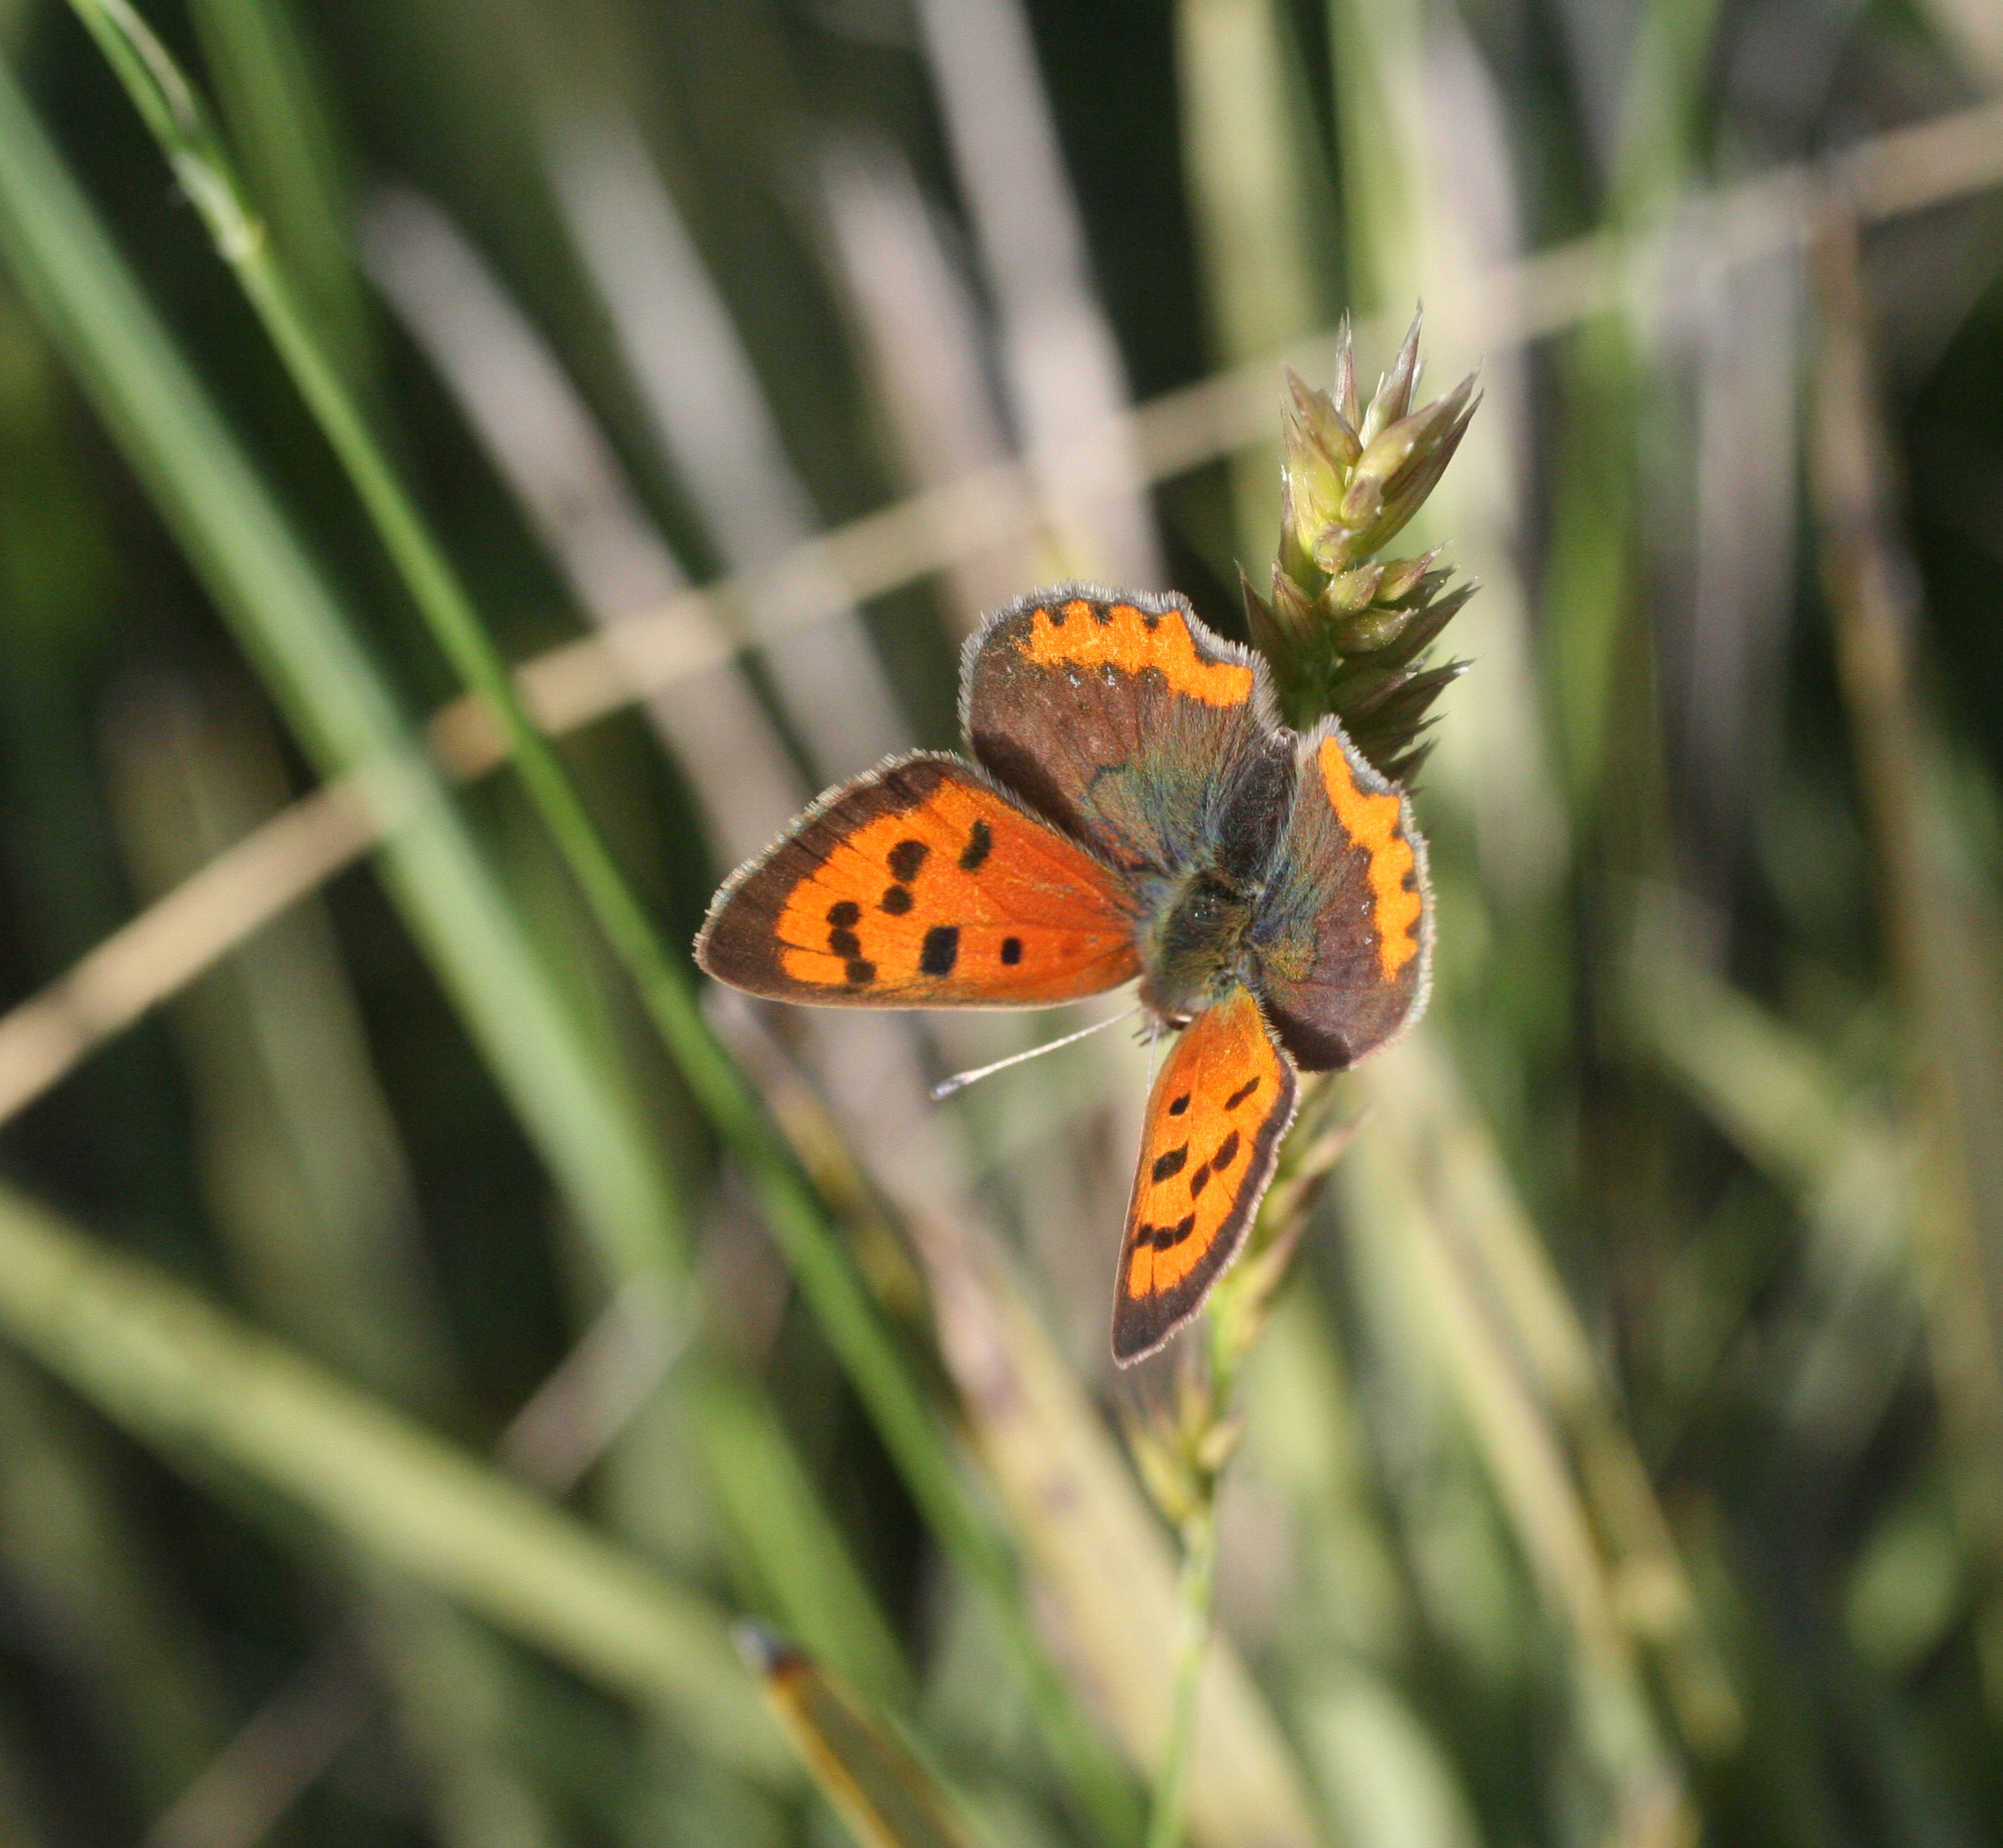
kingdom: Animalia
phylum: Arthropoda
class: Insecta
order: Lepidoptera
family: Lycaenidae
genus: Lycaena
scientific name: Lycaena phlaeas
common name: Small copper
